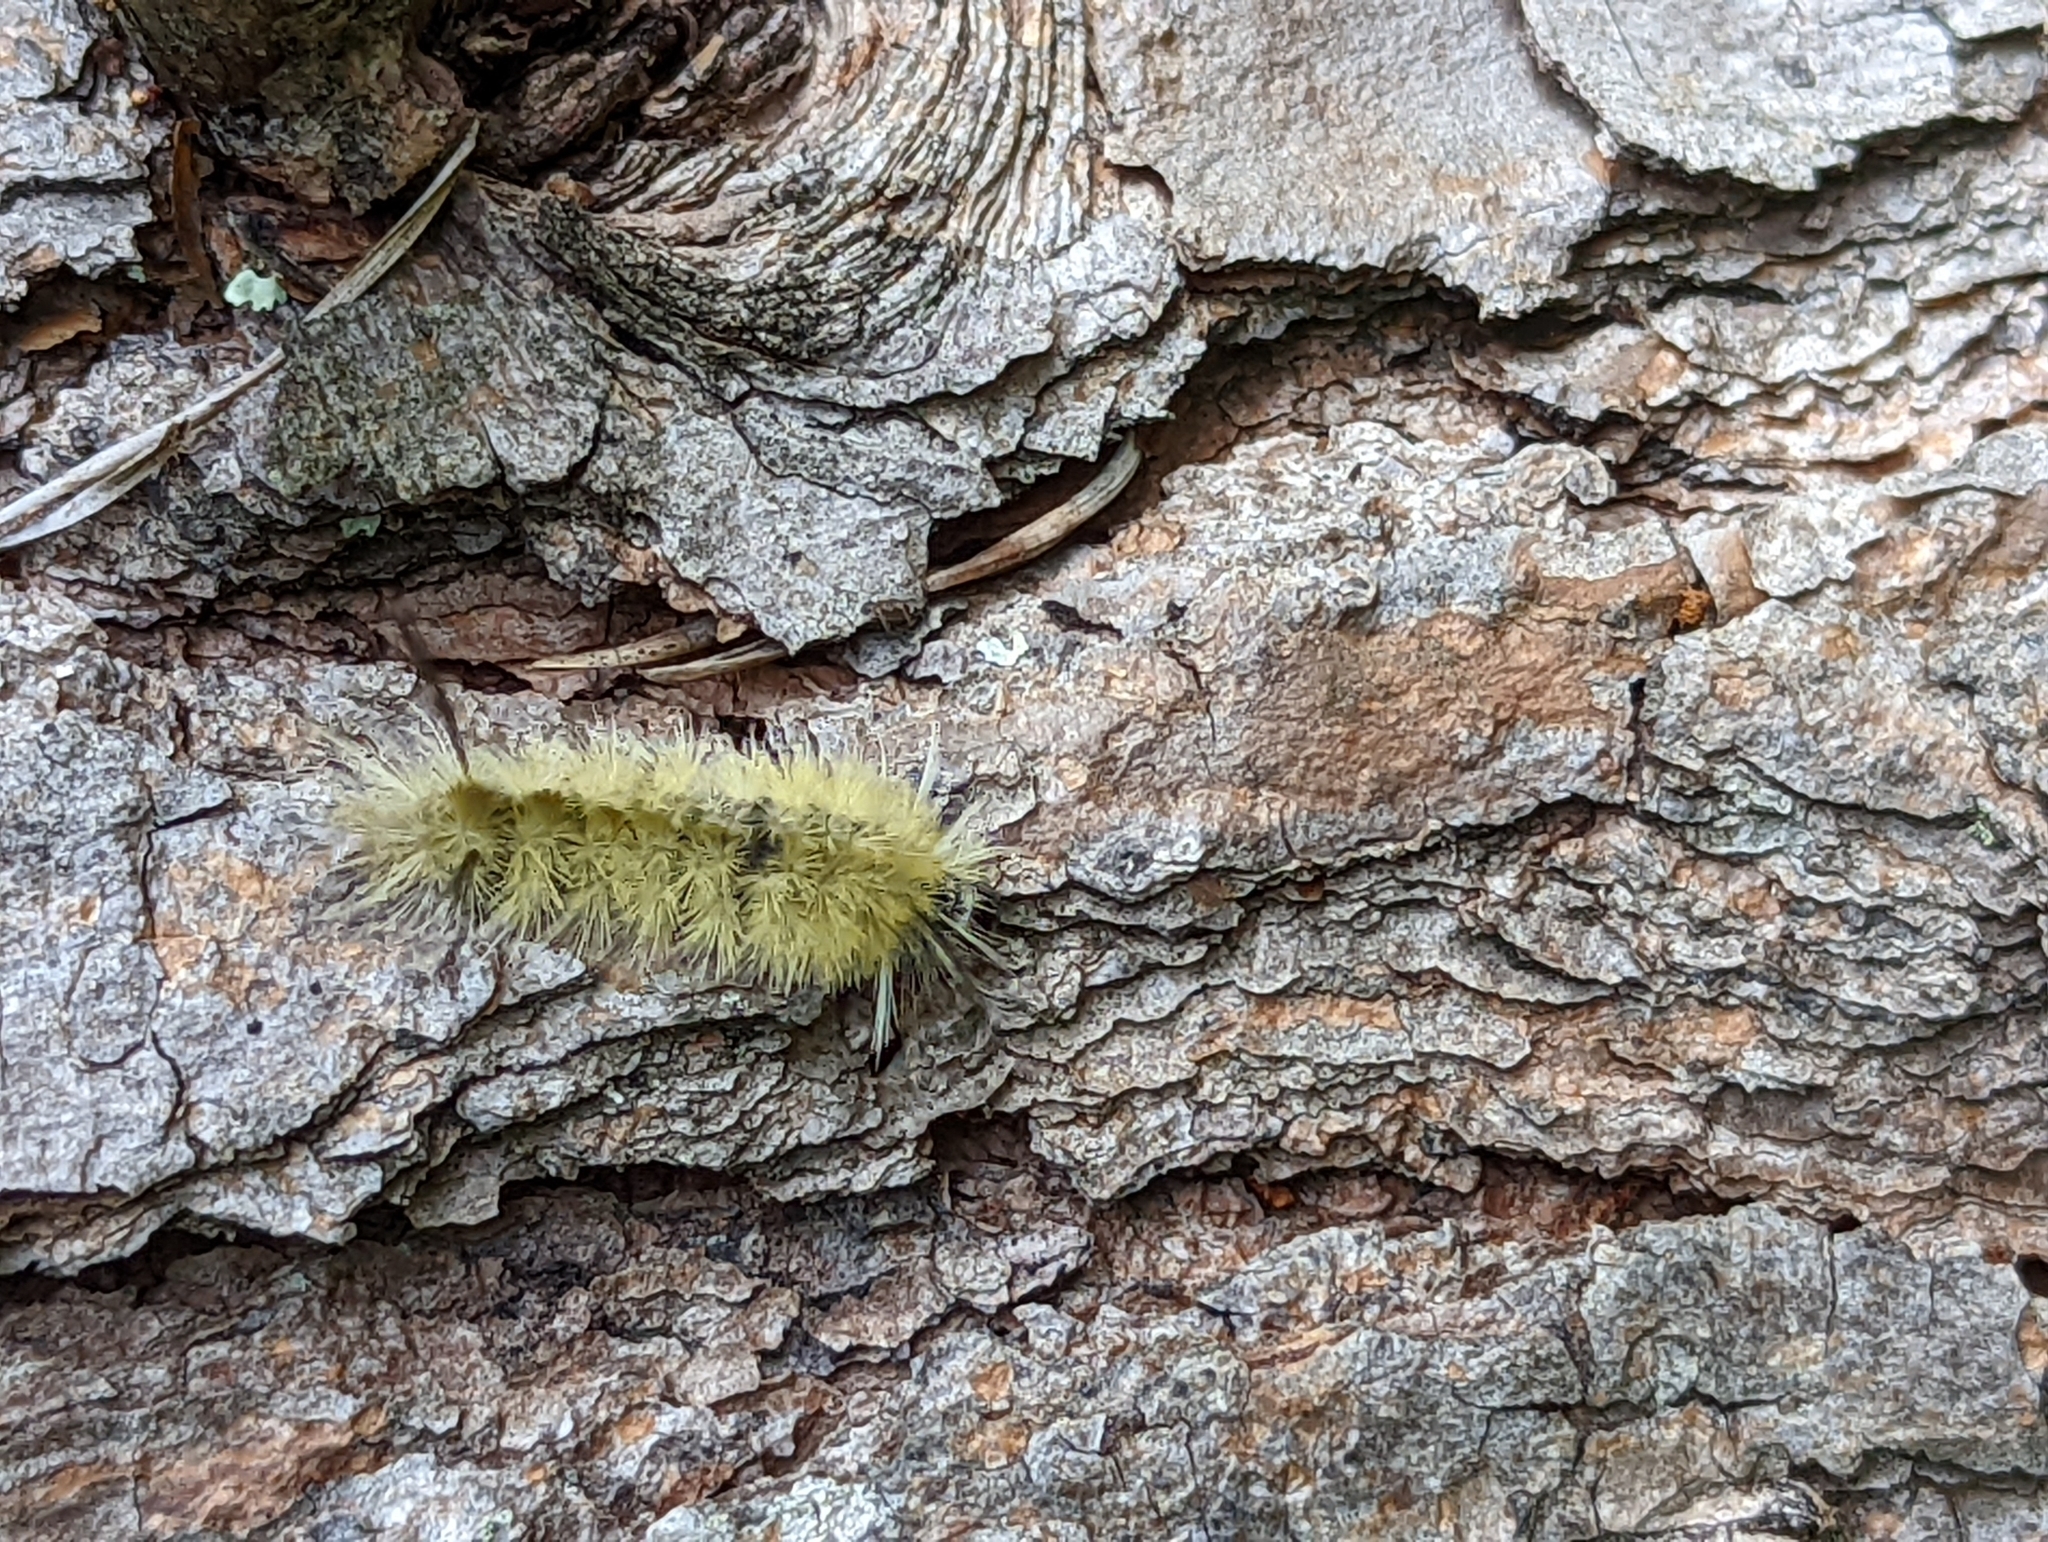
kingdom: Animalia
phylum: Arthropoda
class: Insecta
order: Lepidoptera
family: Erebidae
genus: Halysidota
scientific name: Halysidota tessellaris
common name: Banded tussock moth
